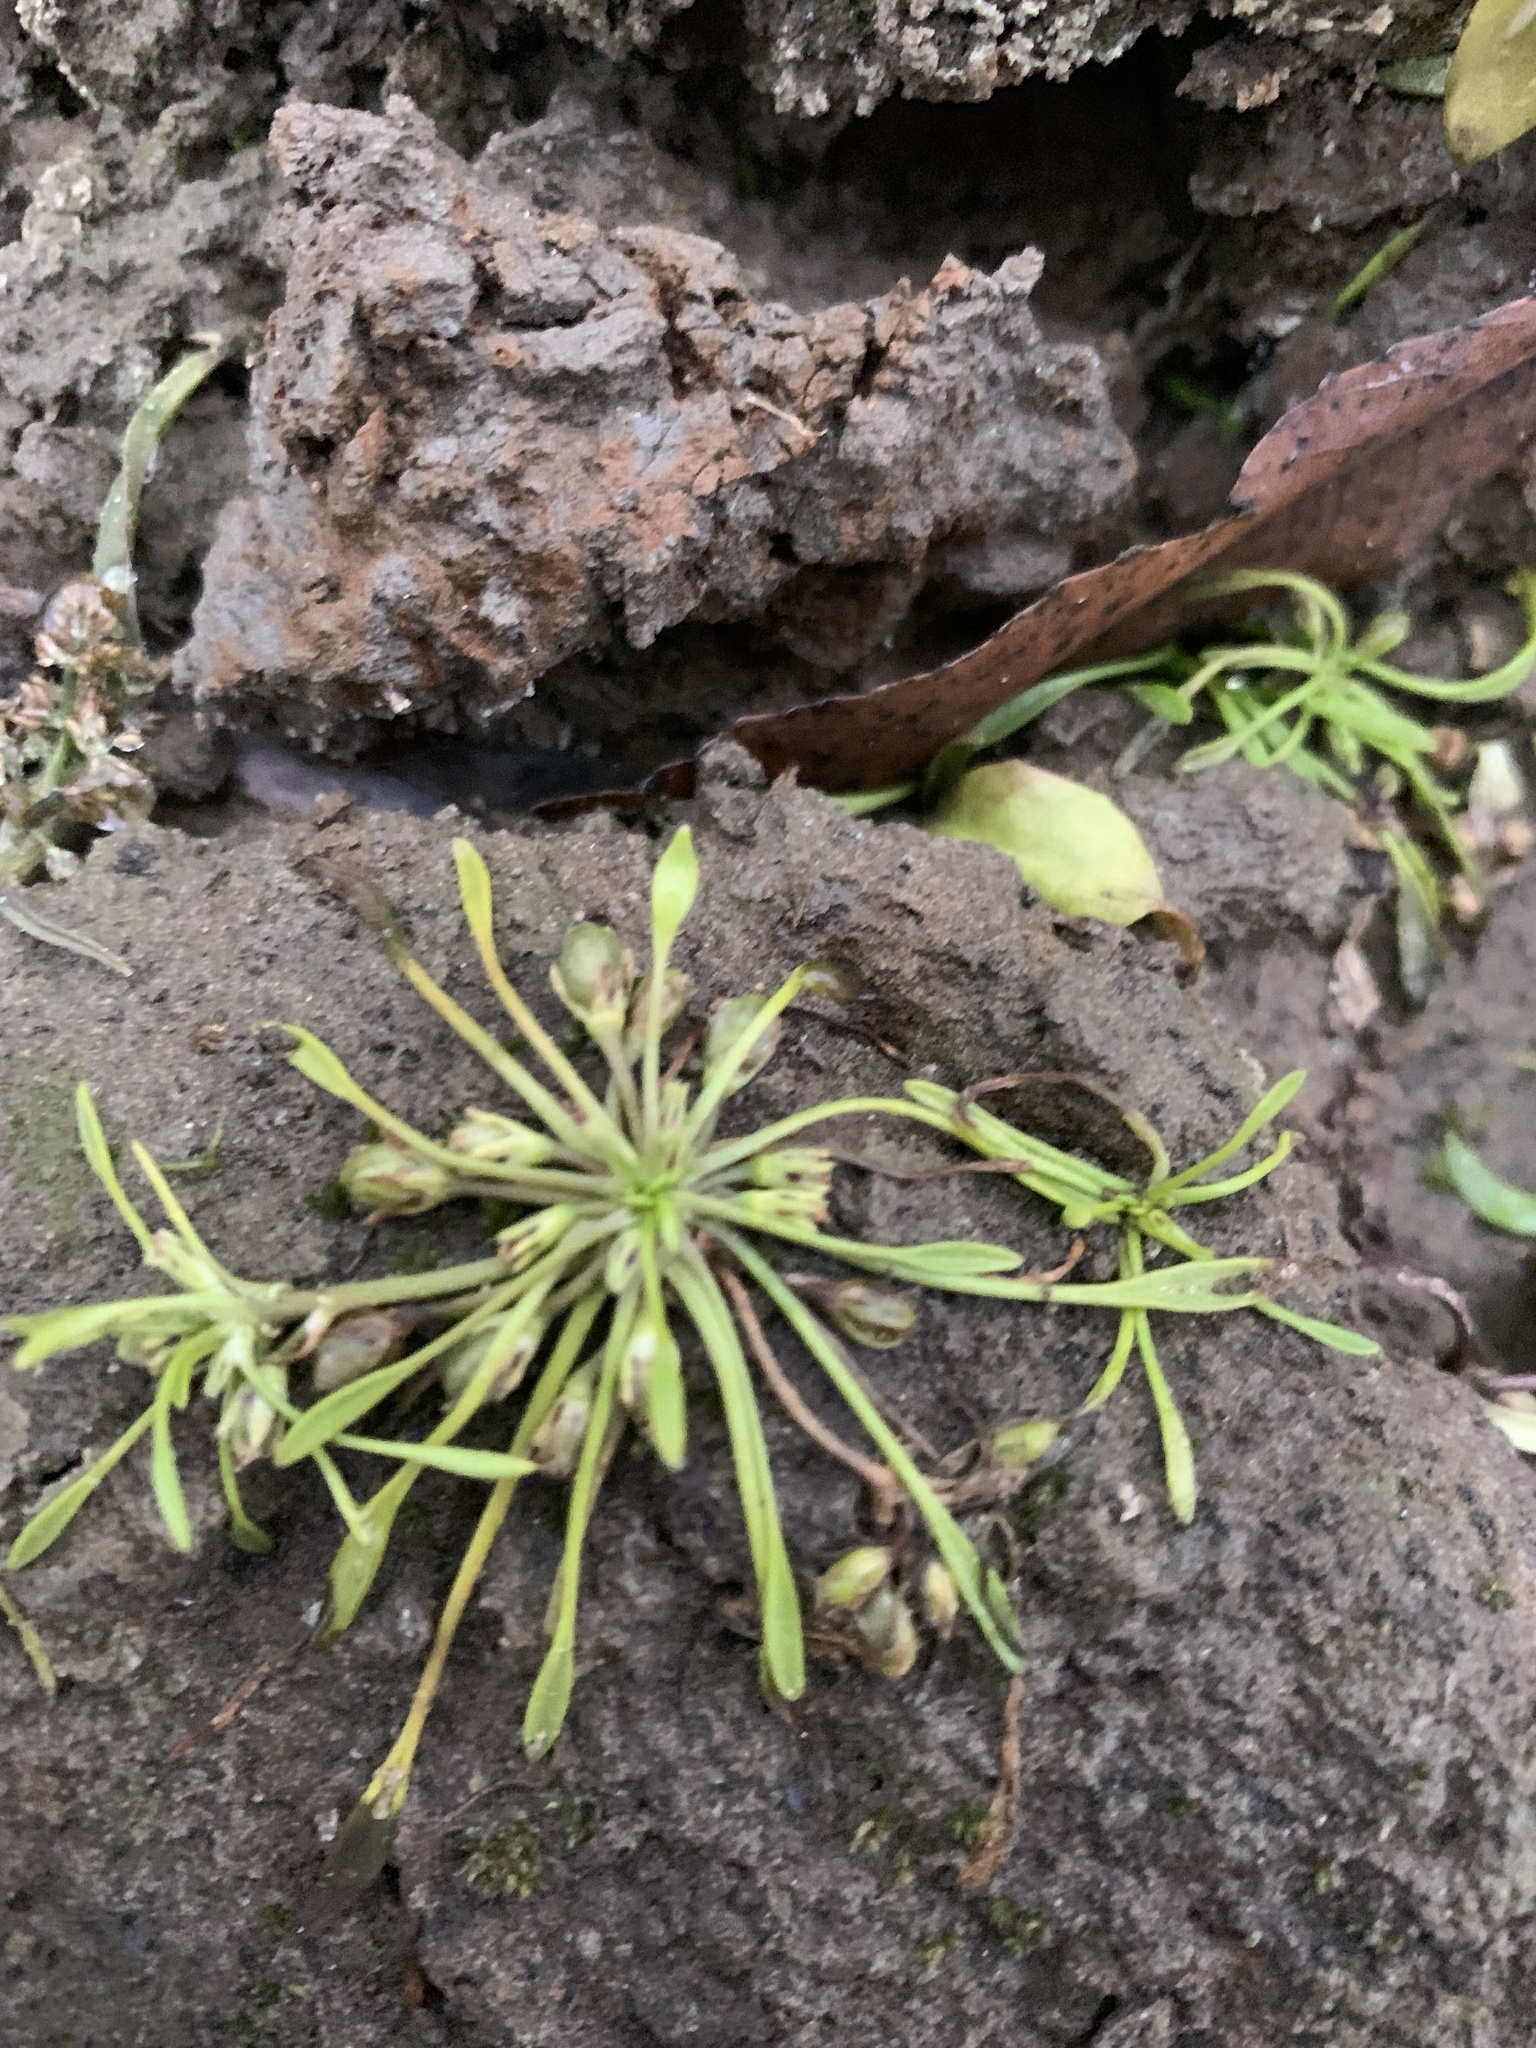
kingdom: Plantae
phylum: Tracheophyta
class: Magnoliopsida
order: Lamiales
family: Scrophulariaceae
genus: Limosella
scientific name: Limosella aquatica
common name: Mudwort
